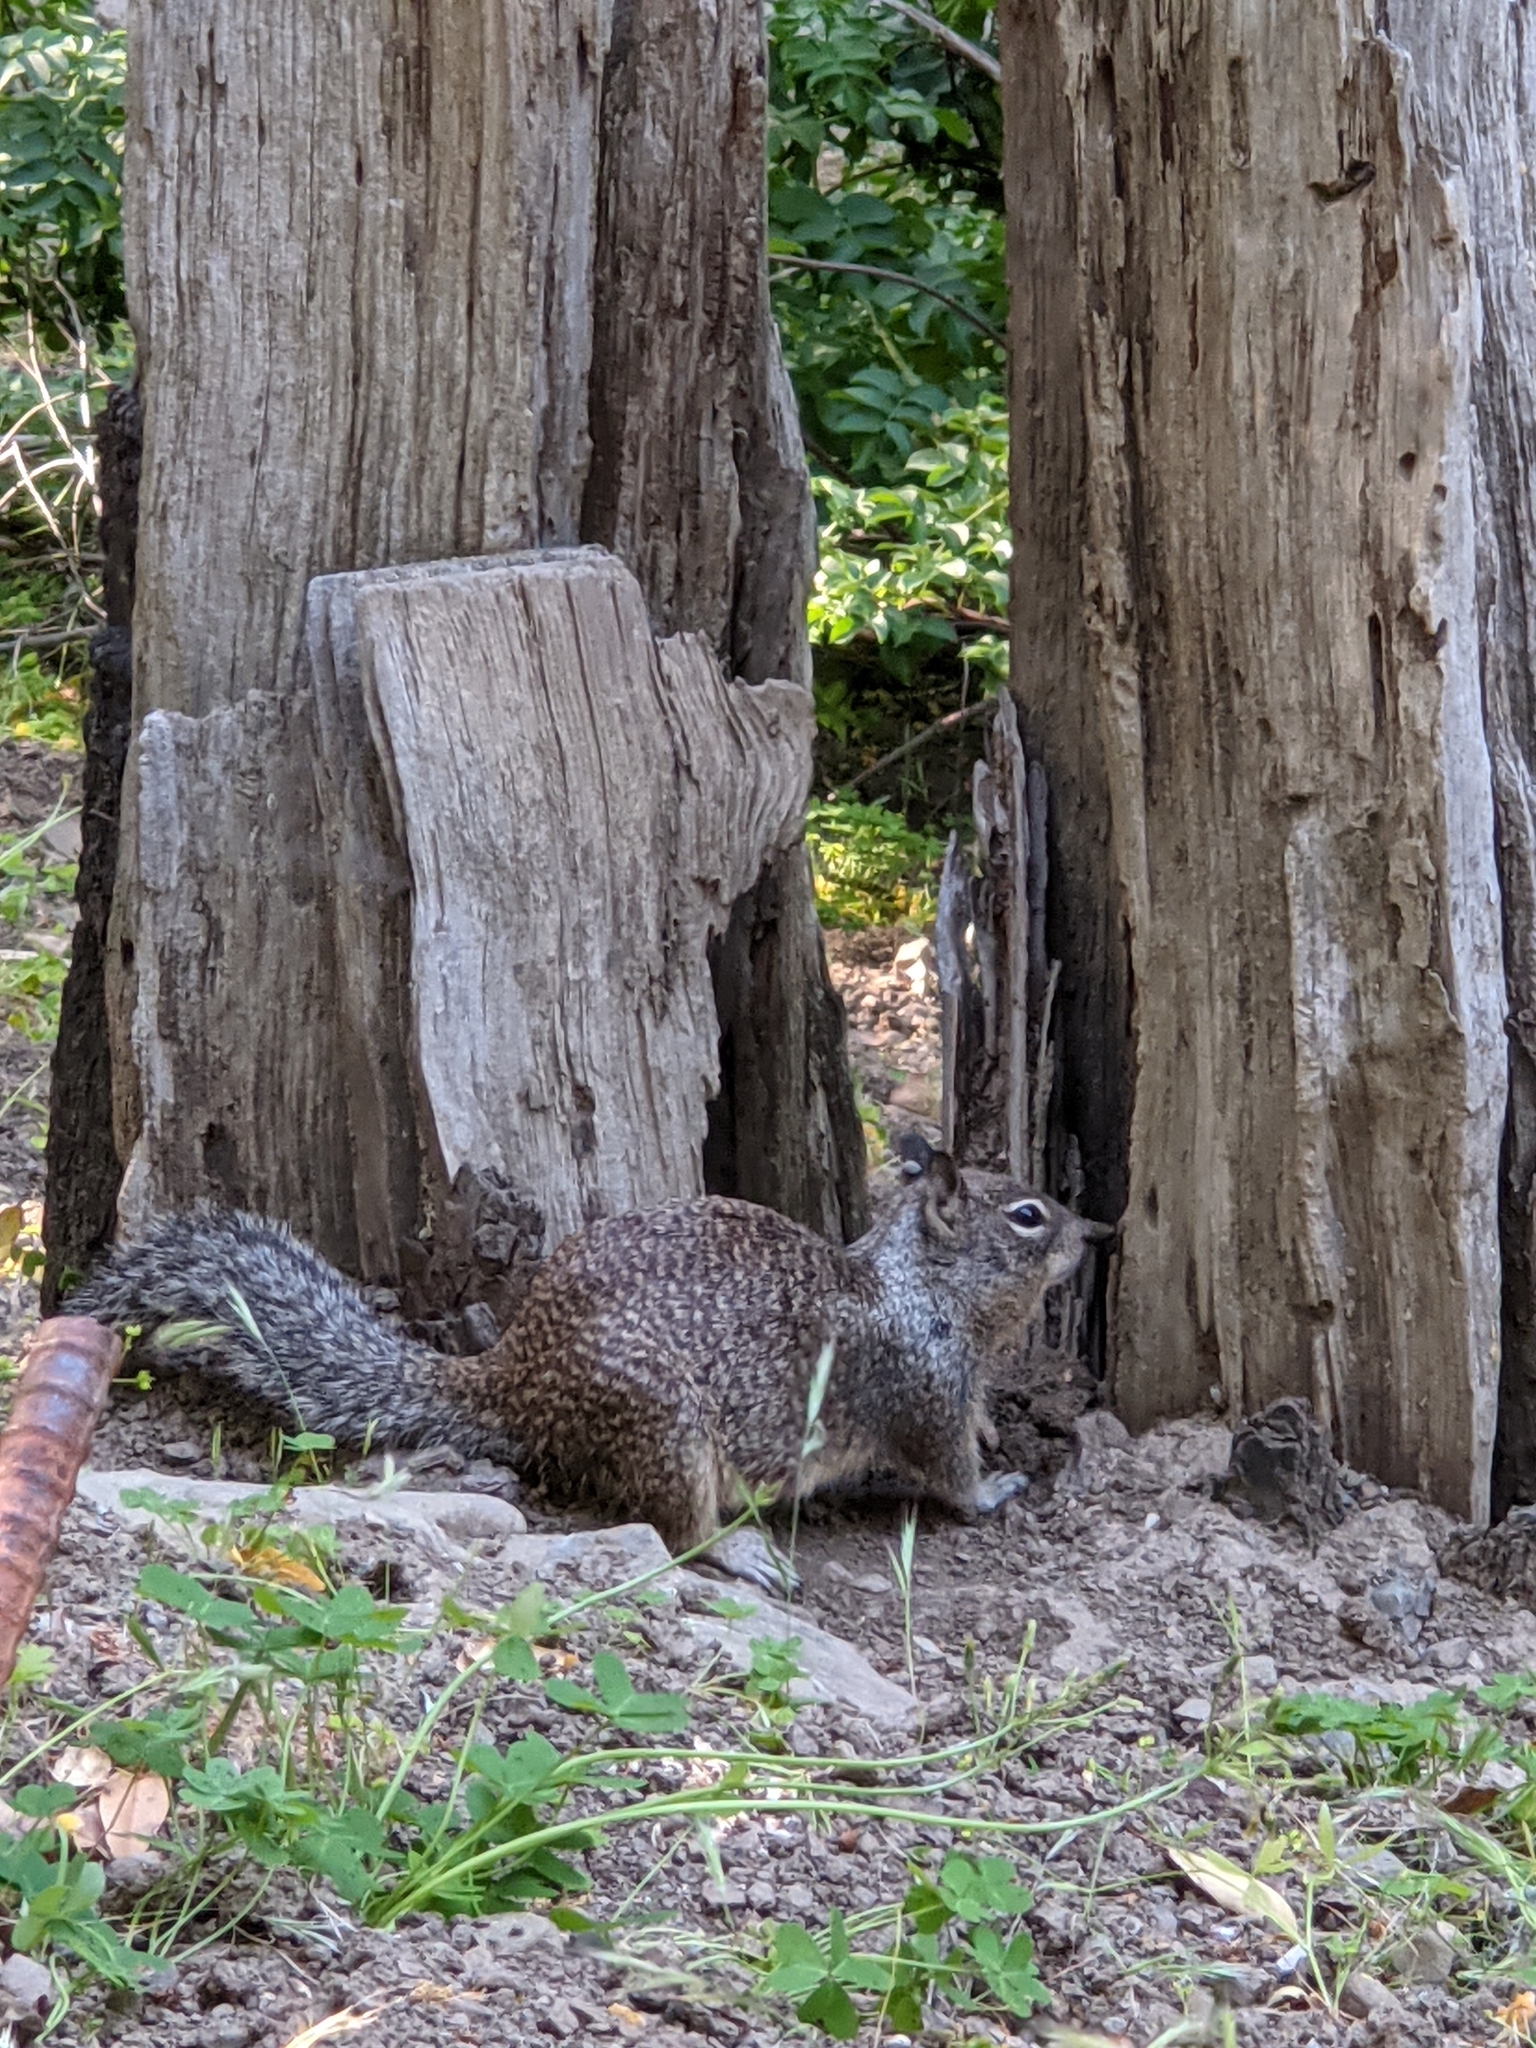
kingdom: Animalia
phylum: Chordata
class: Mammalia
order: Rodentia
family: Sciuridae
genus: Otospermophilus
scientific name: Otospermophilus beecheyi
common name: California ground squirrel
